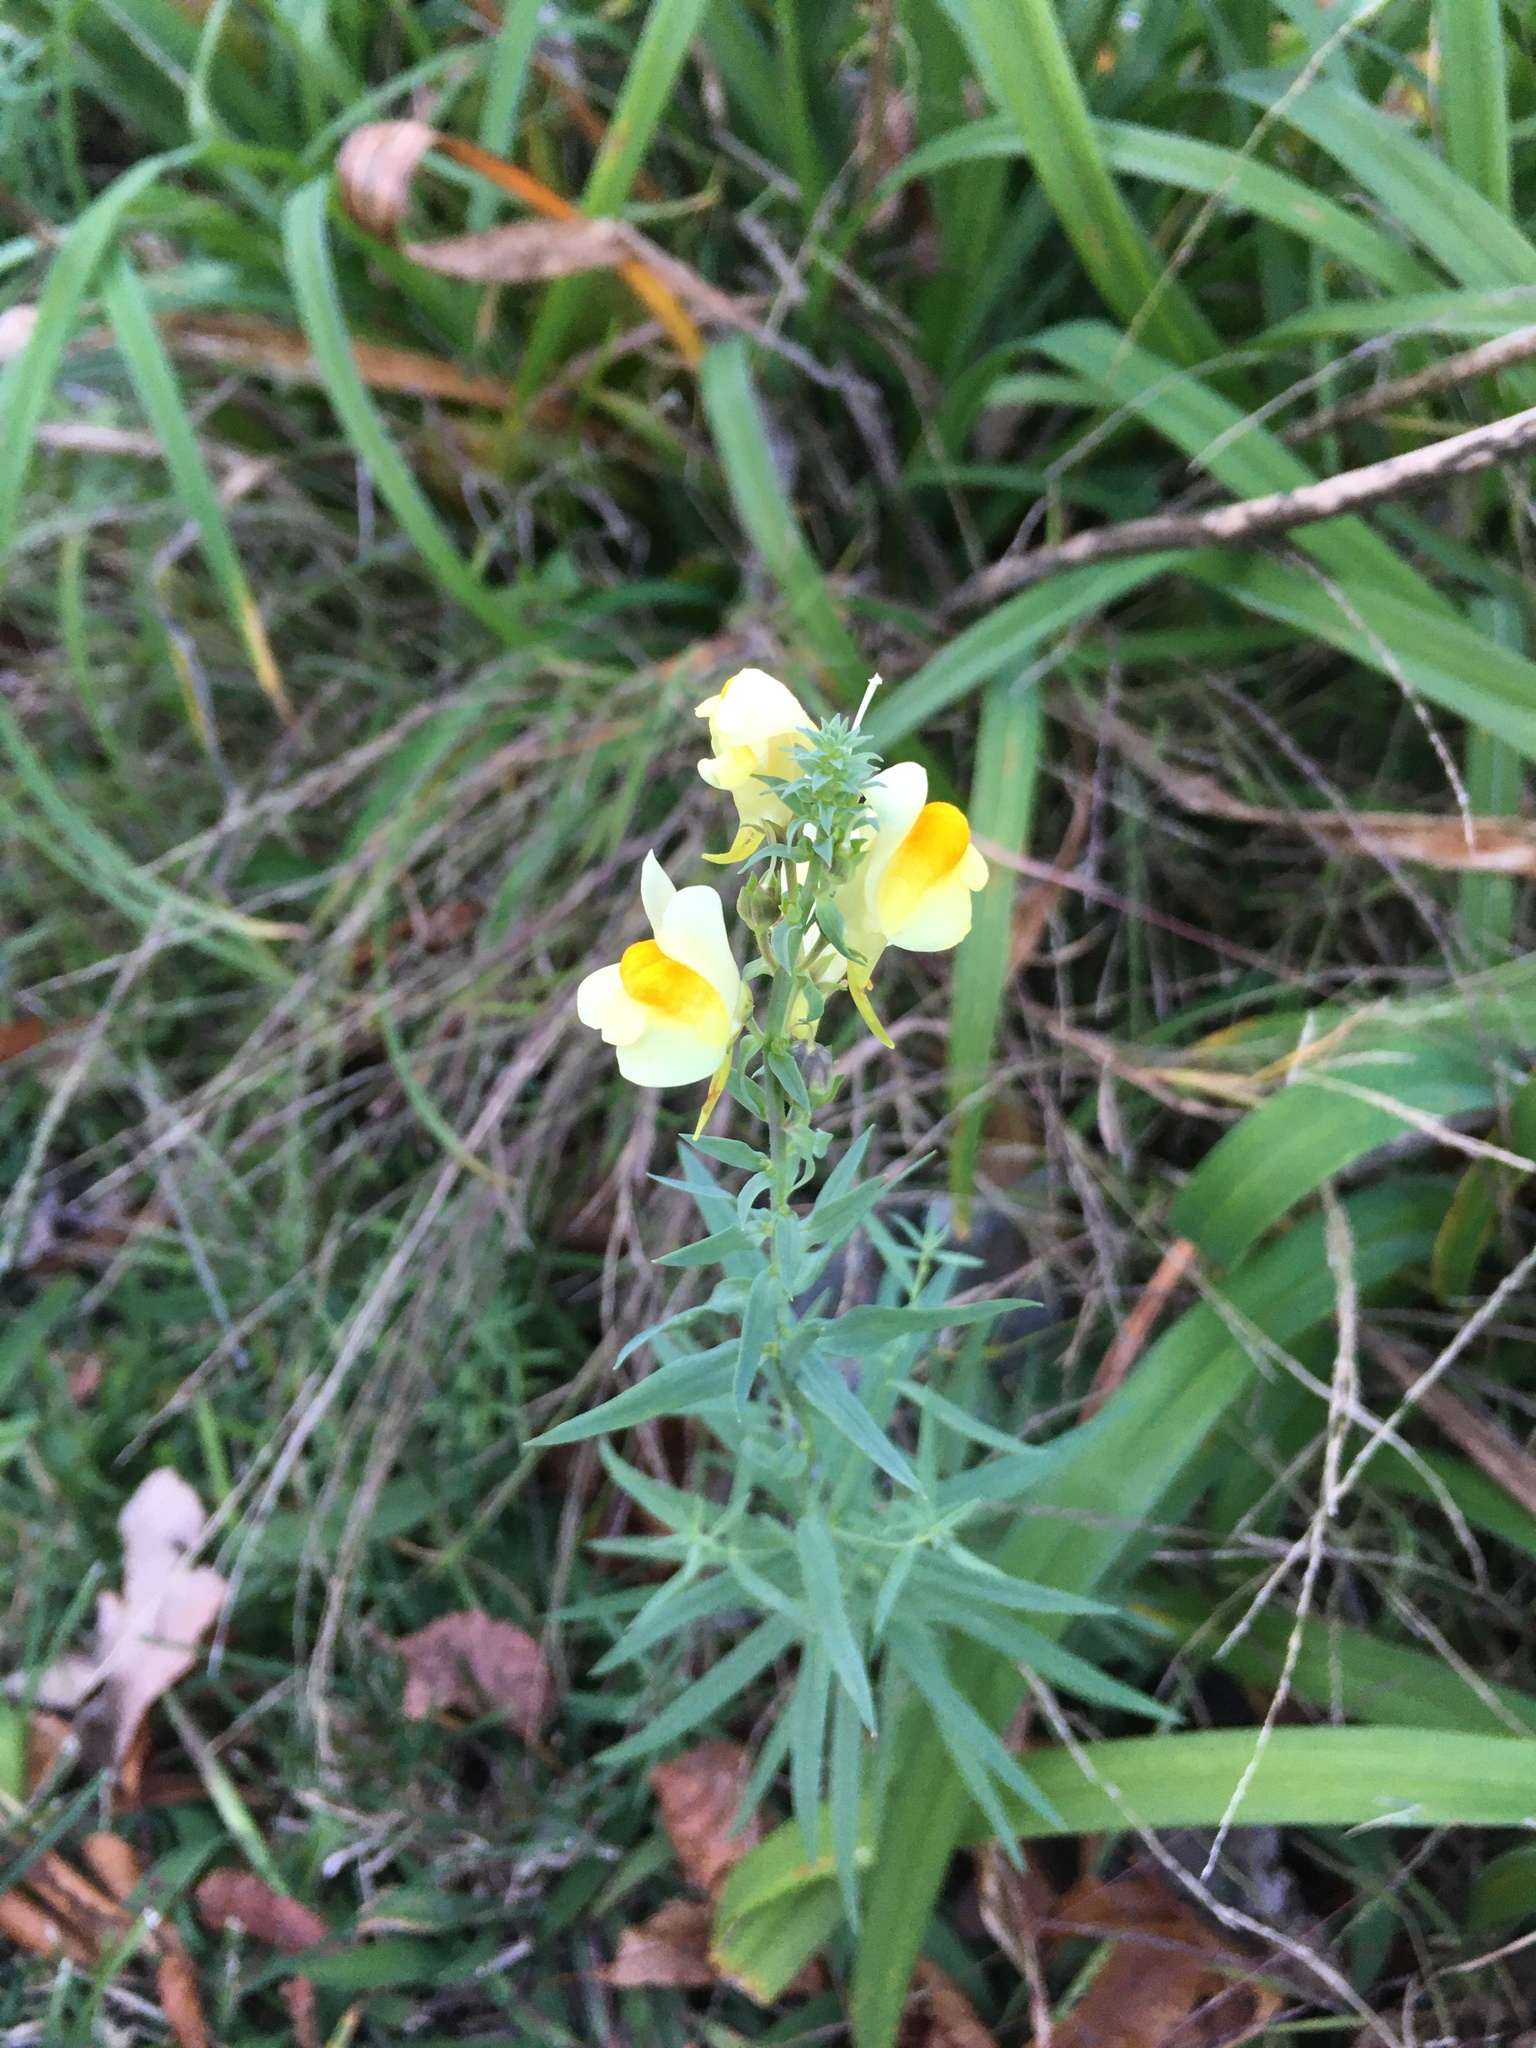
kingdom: Plantae
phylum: Tracheophyta
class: Magnoliopsida
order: Lamiales
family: Plantaginaceae
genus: Linaria
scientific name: Linaria vulgaris
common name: Butter and eggs
